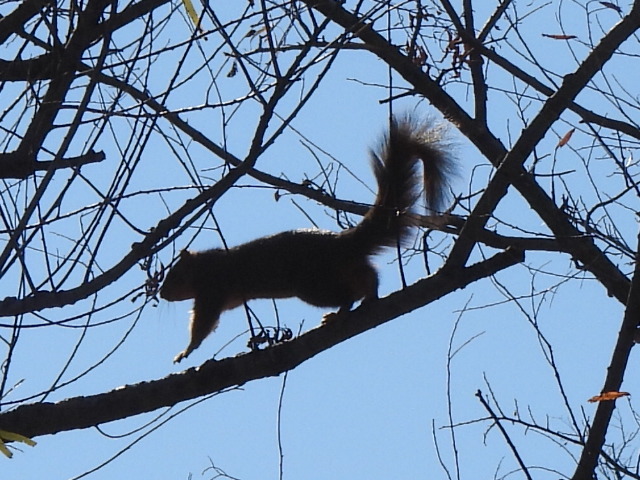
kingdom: Animalia
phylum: Chordata
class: Mammalia
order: Rodentia
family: Sciuridae
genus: Sciurus
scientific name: Sciurus niger
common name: Fox squirrel
